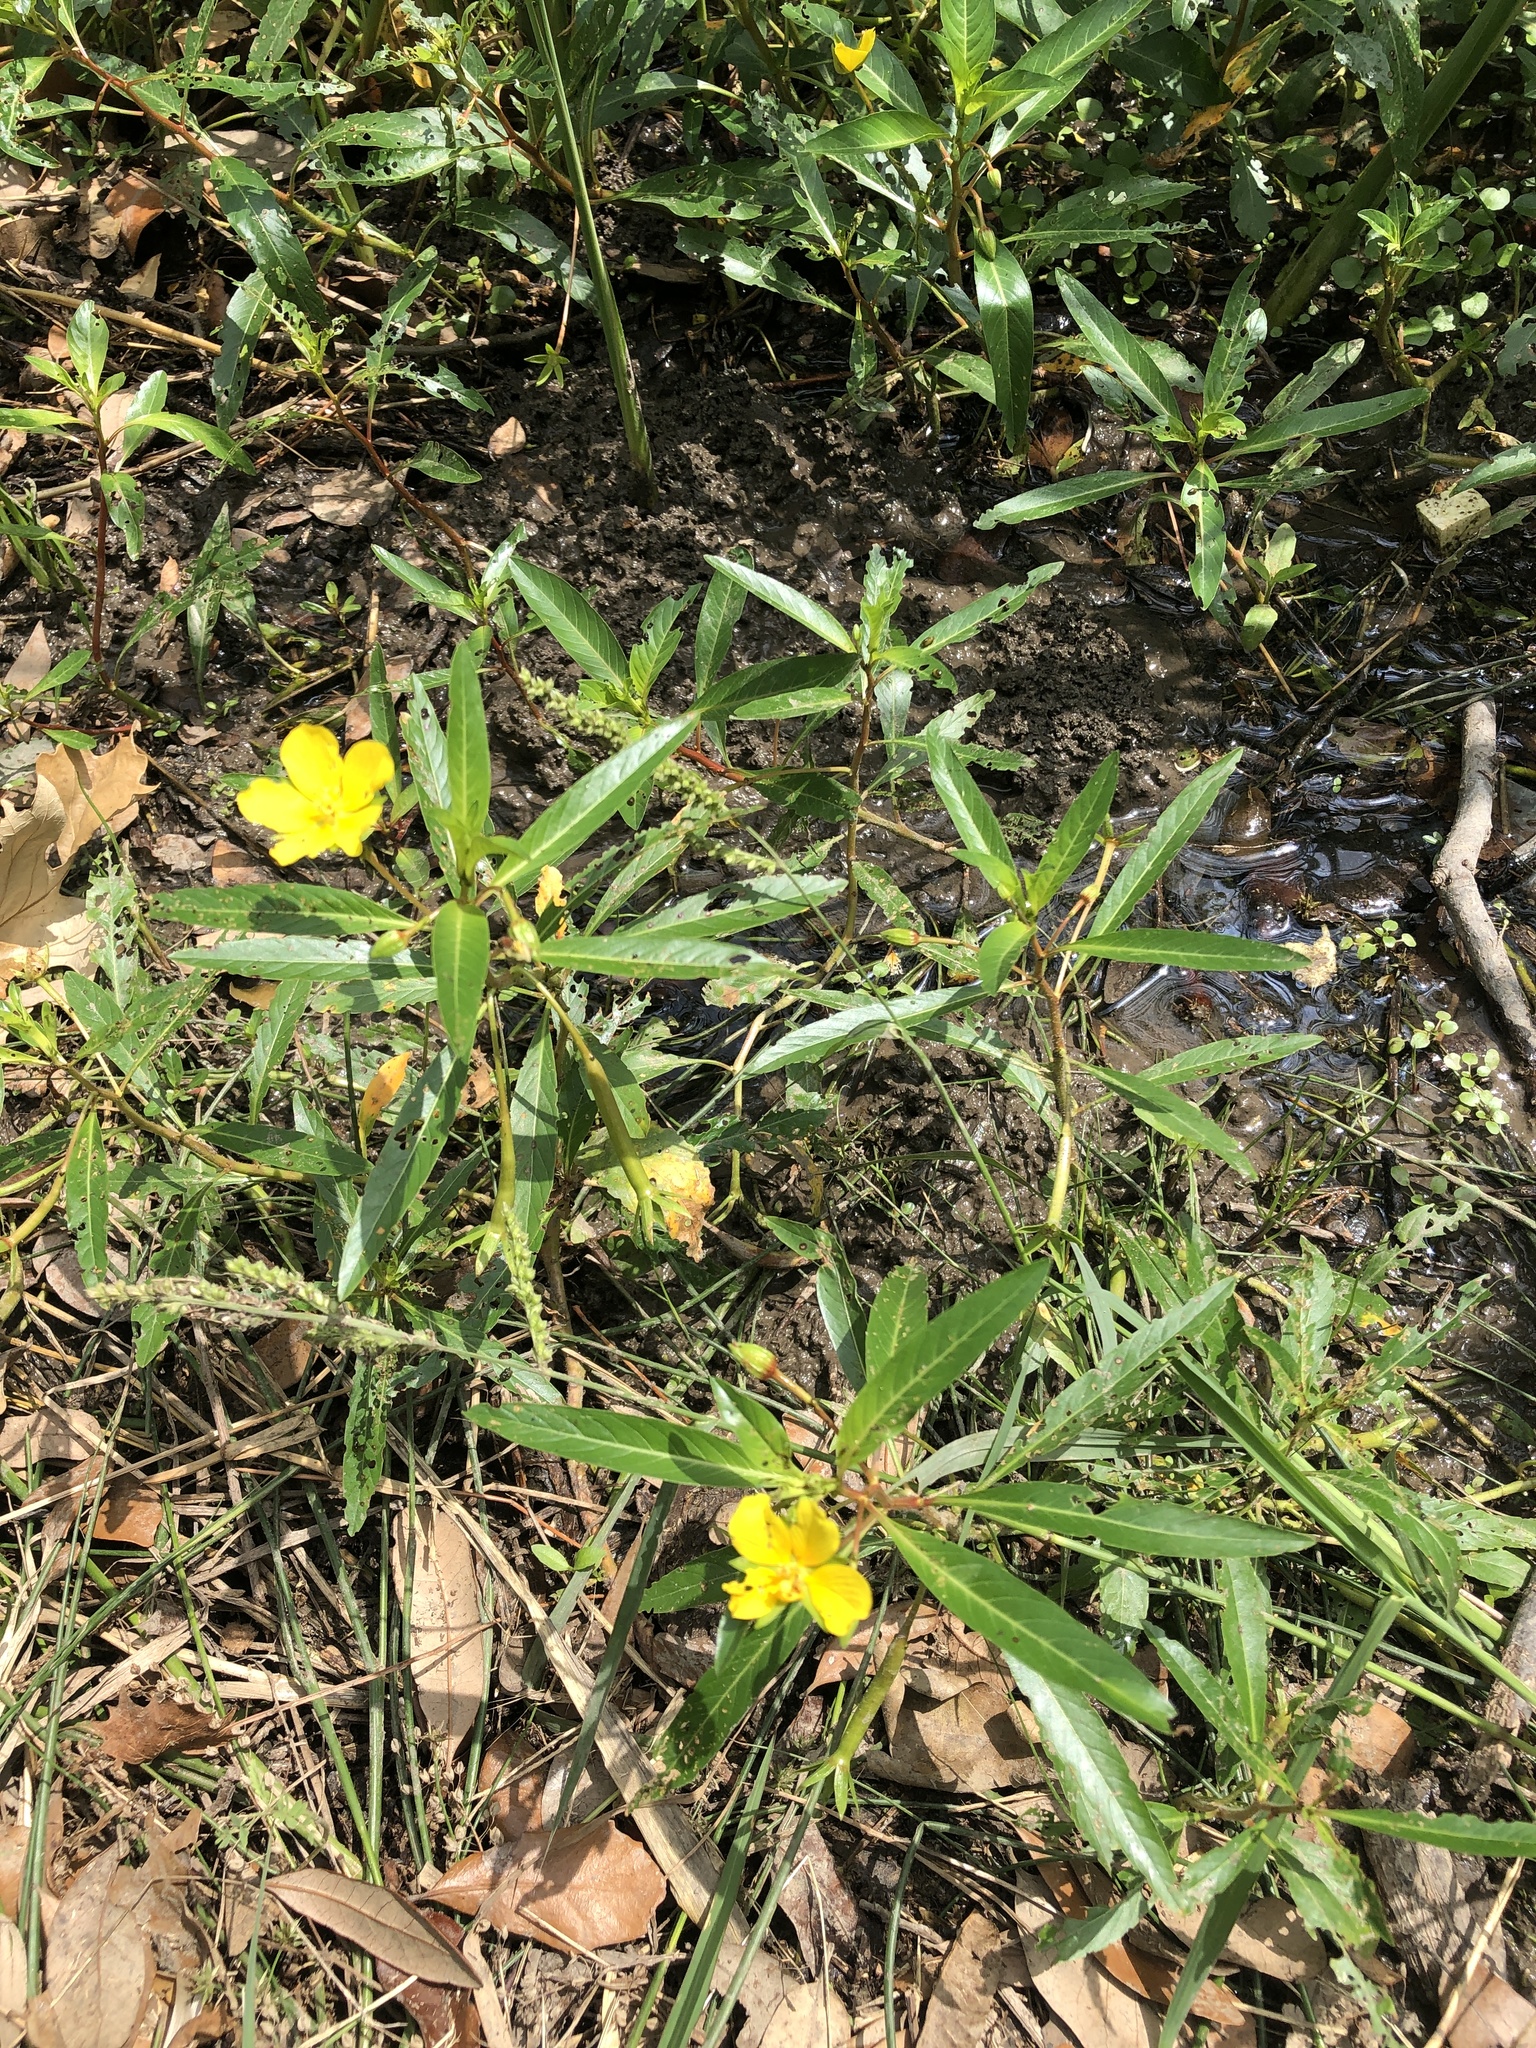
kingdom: Plantae
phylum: Tracheophyta
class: Magnoliopsida
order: Myrtales
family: Onagraceae
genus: Ludwigia
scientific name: Ludwigia peploides
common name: Floating primrose-willow
